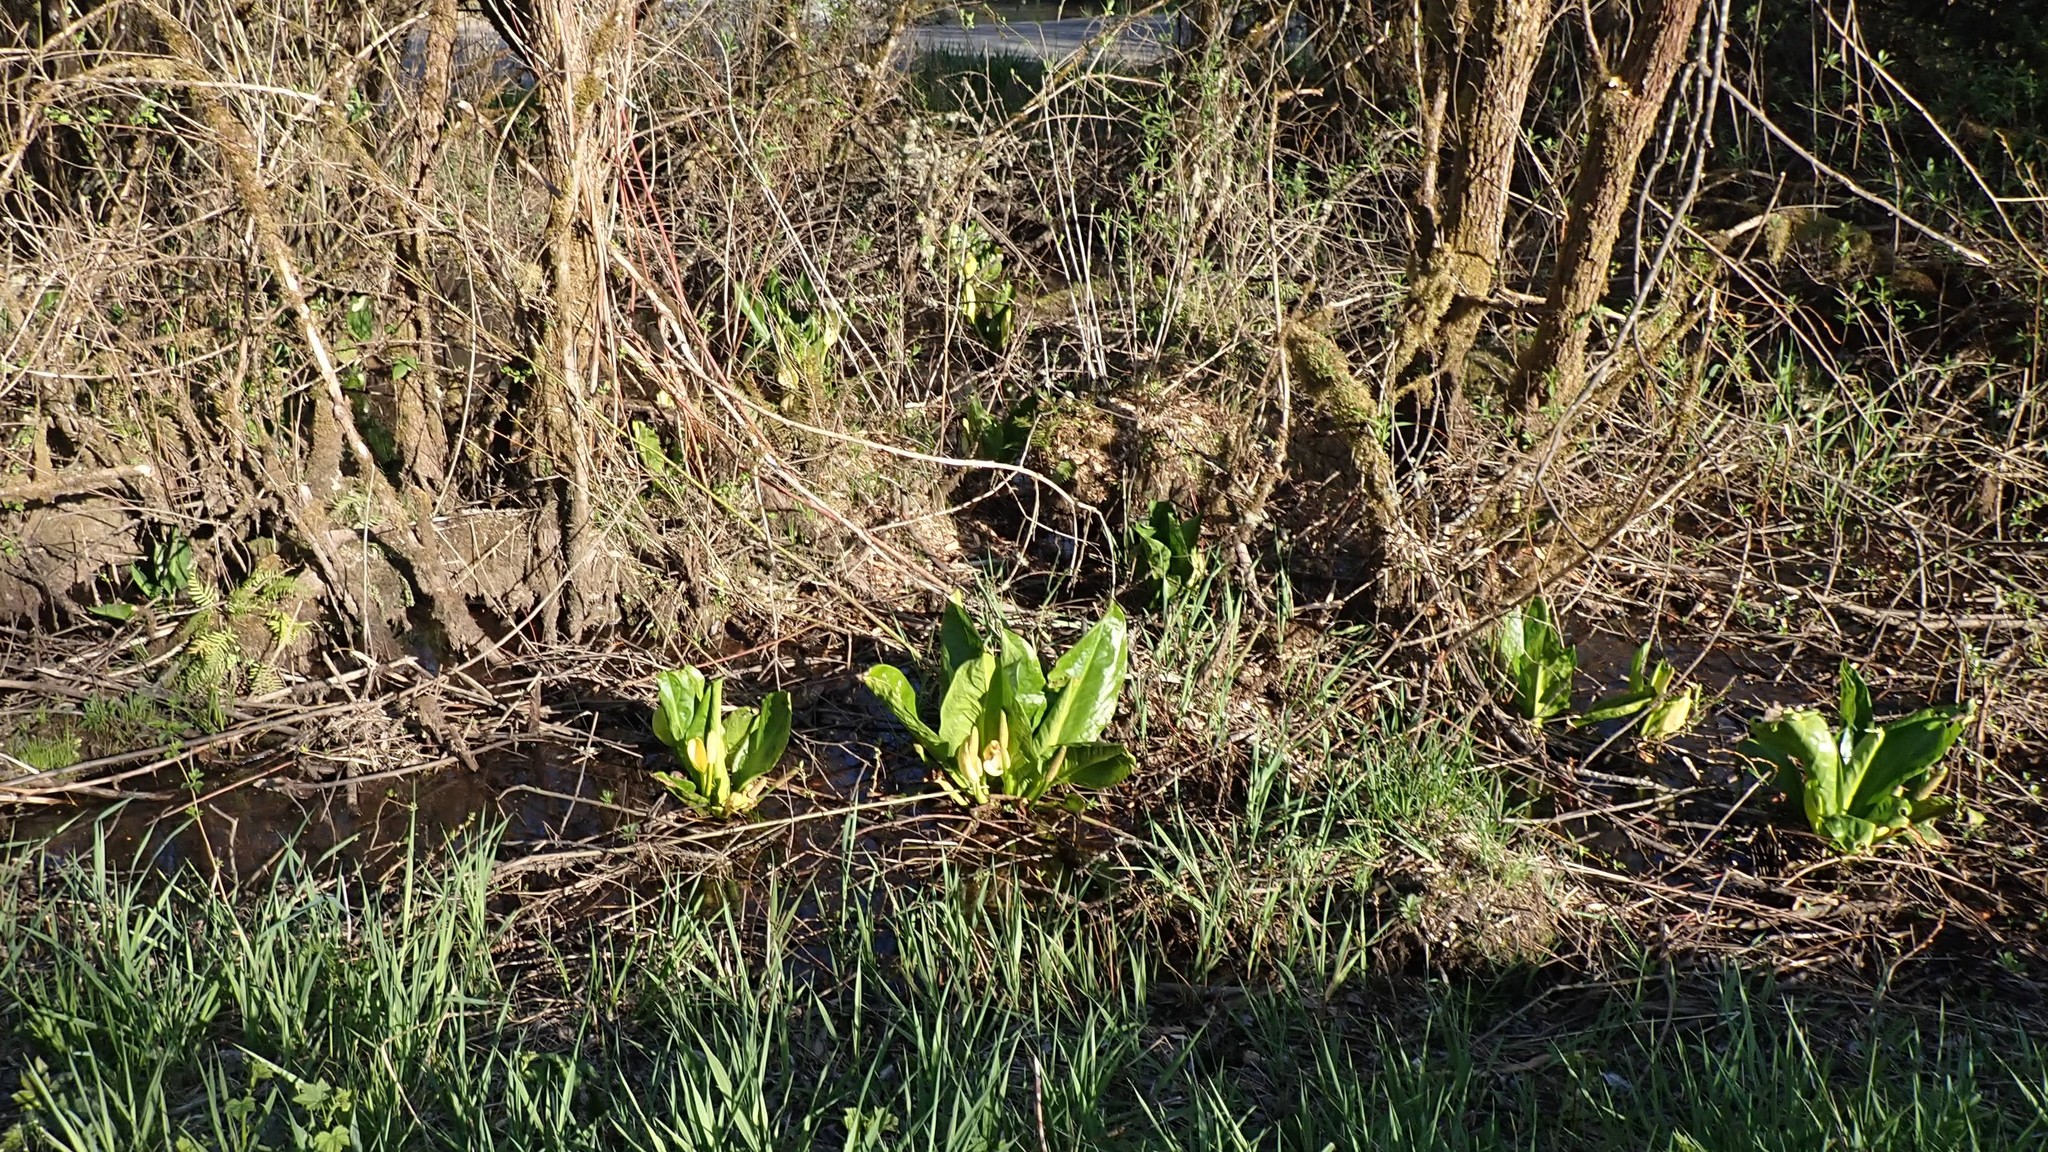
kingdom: Plantae
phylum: Tracheophyta
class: Liliopsida
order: Alismatales
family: Araceae
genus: Lysichiton
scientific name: Lysichiton americanus
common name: American skunk cabbage
